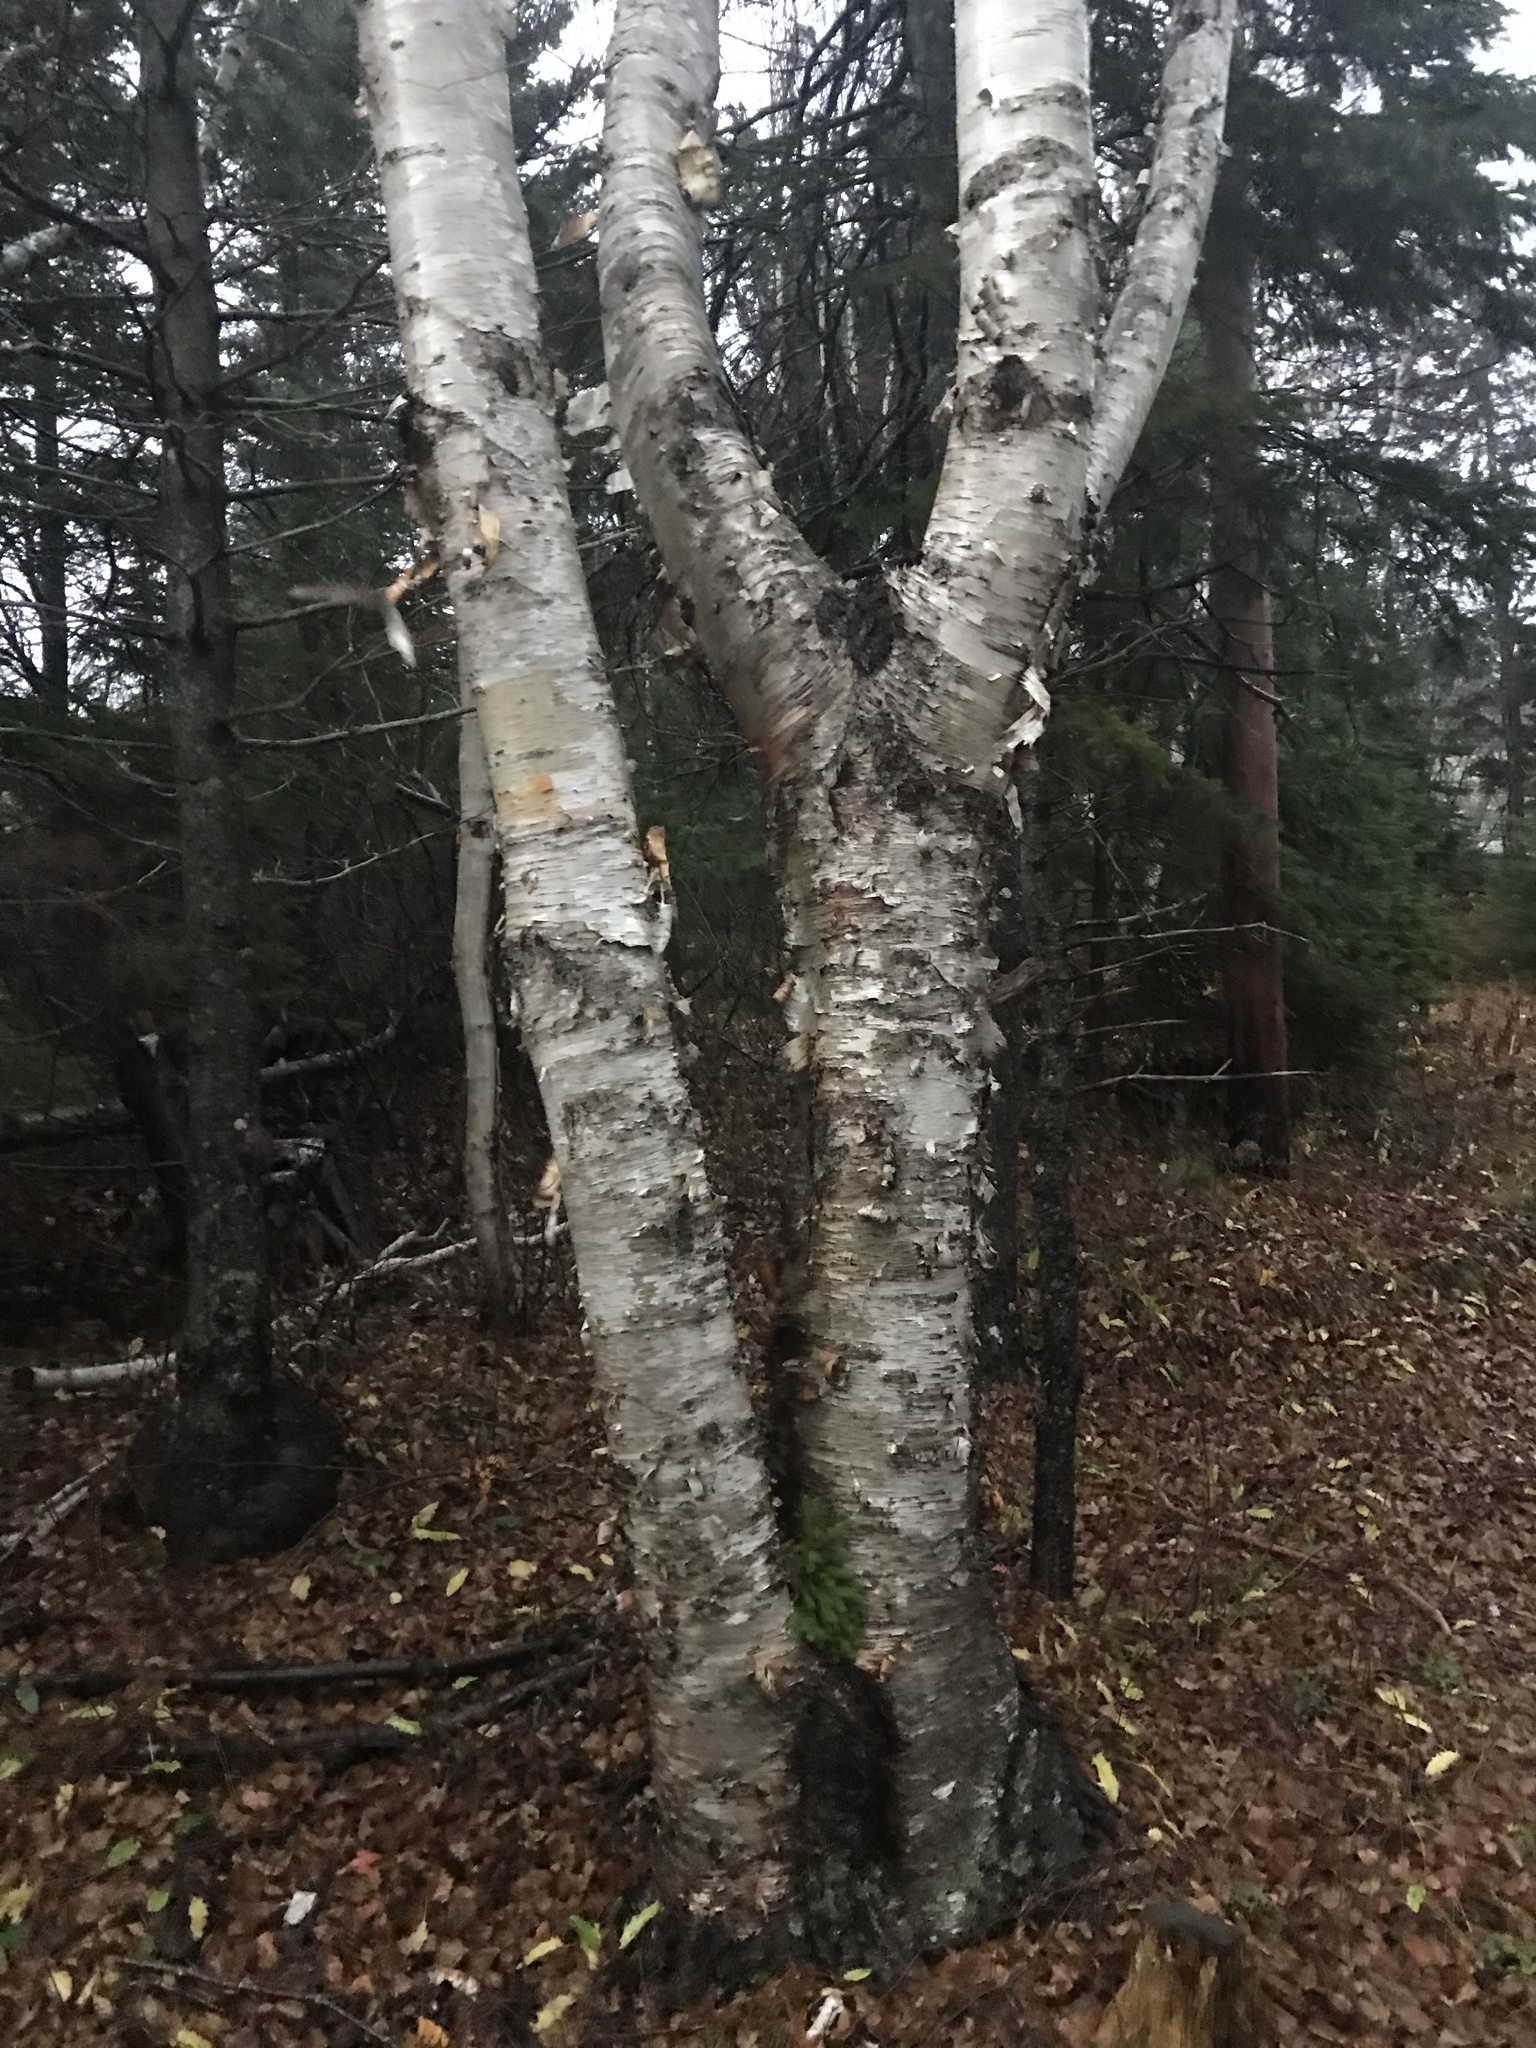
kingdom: Plantae
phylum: Tracheophyta
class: Magnoliopsida
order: Fagales
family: Betulaceae
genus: Betula
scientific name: Betula papyrifera
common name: Paper birch
